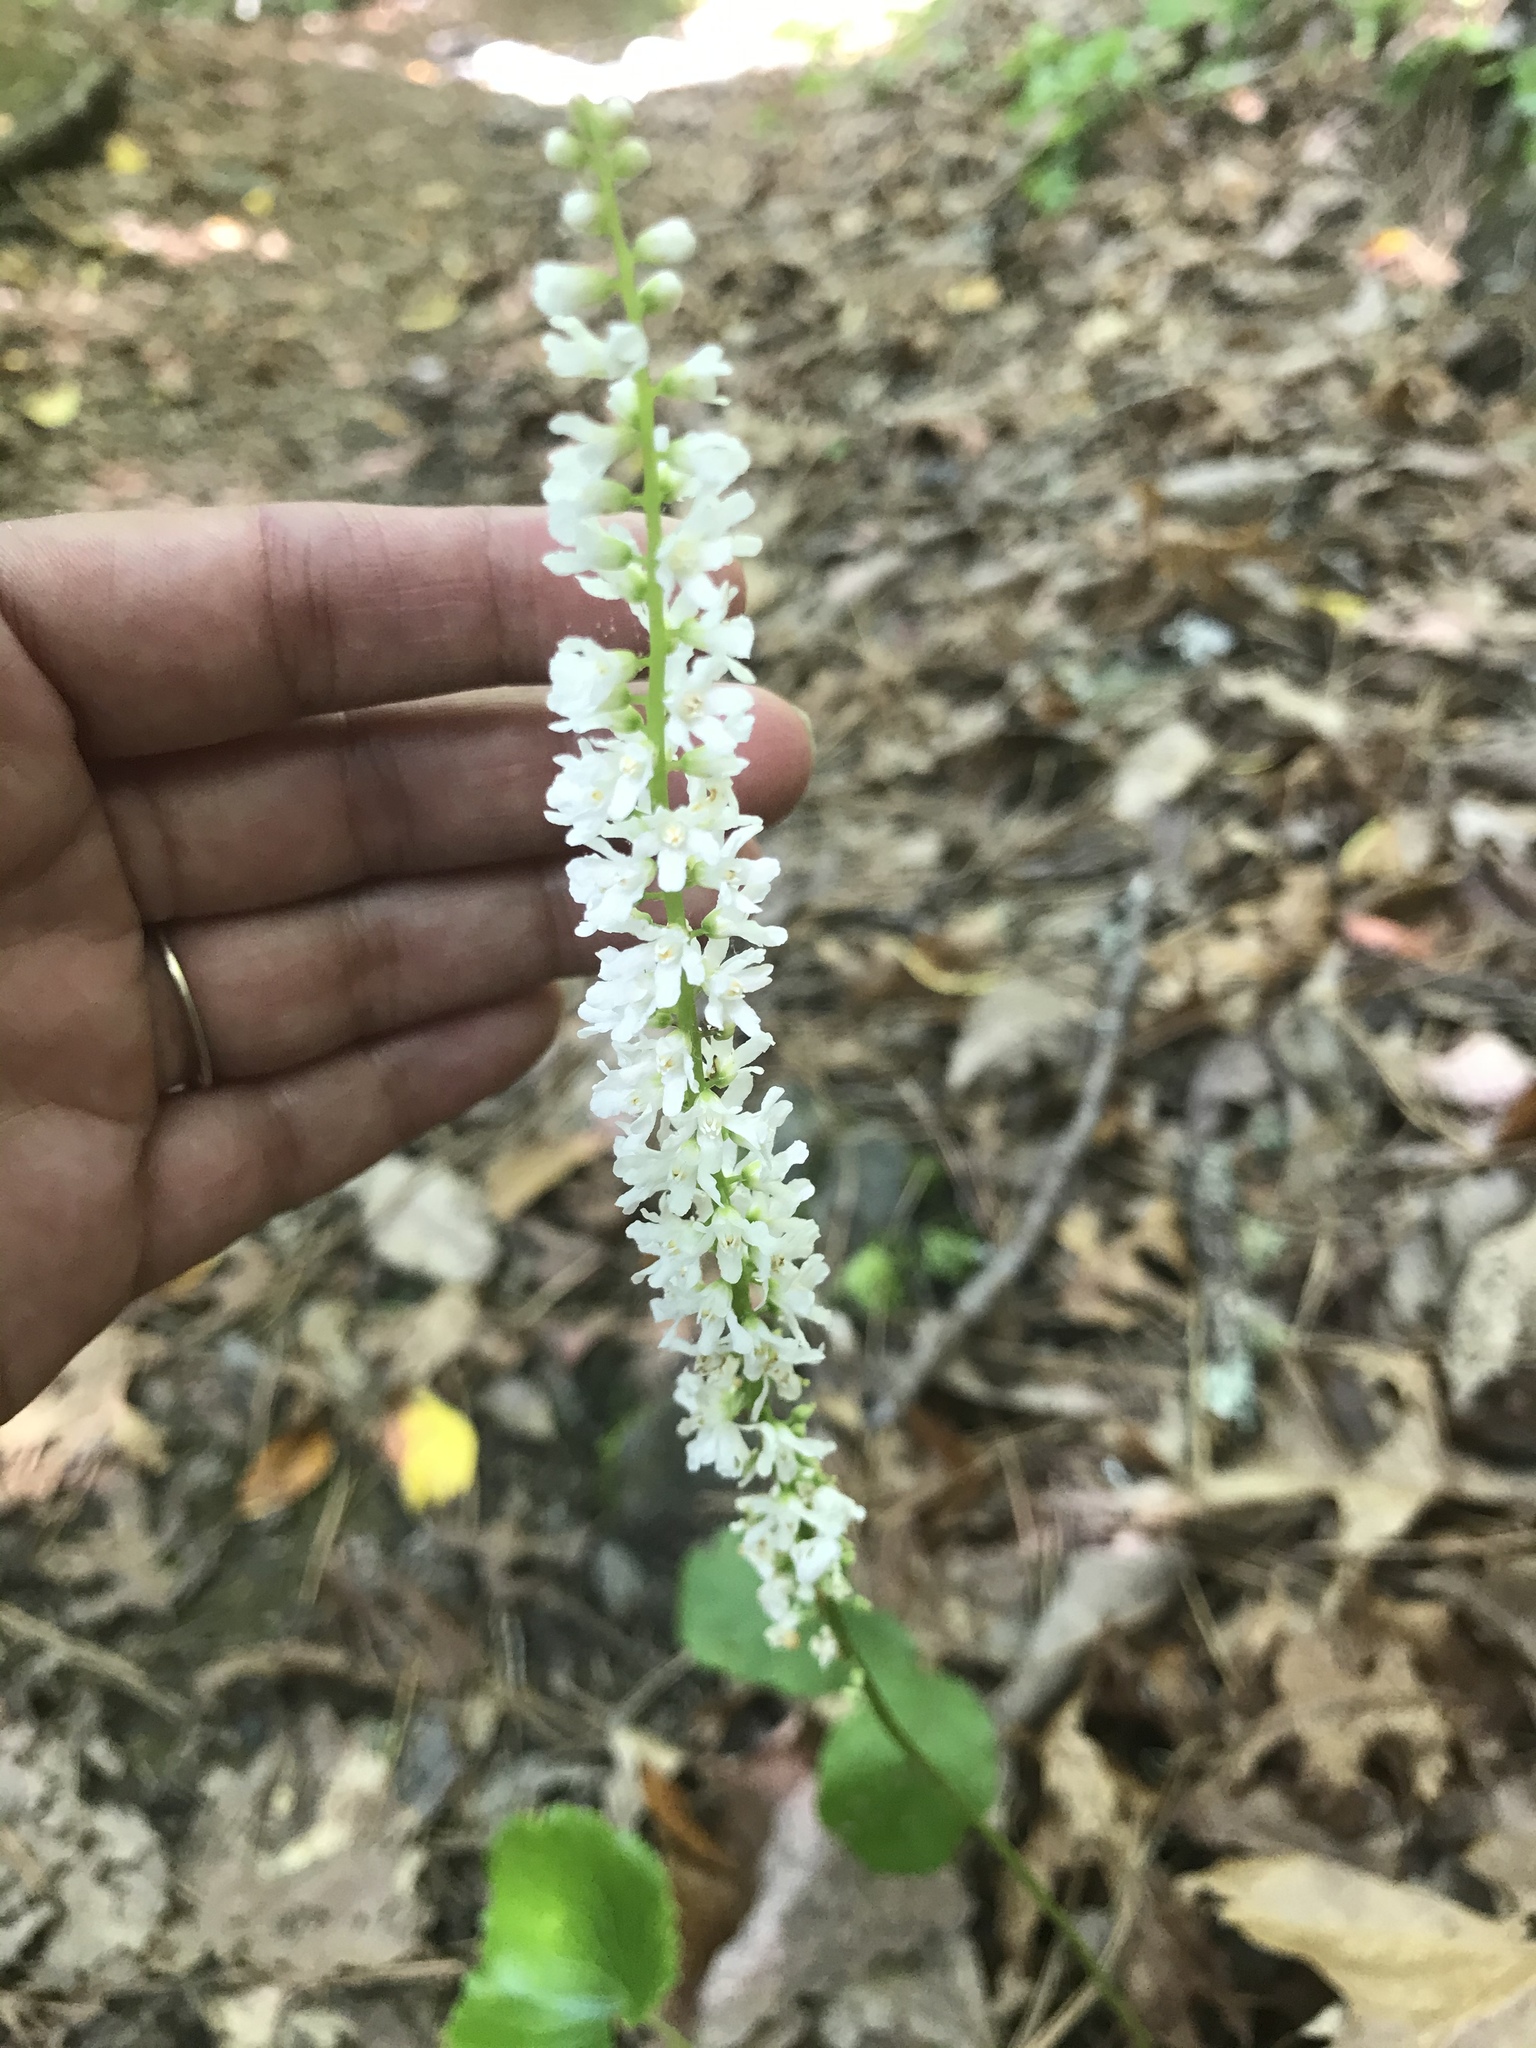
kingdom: Plantae
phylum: Tracheophyta
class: Magnoliopsida
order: Ericales
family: Diapensiaceae
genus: Galax
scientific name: Galax urceolata
